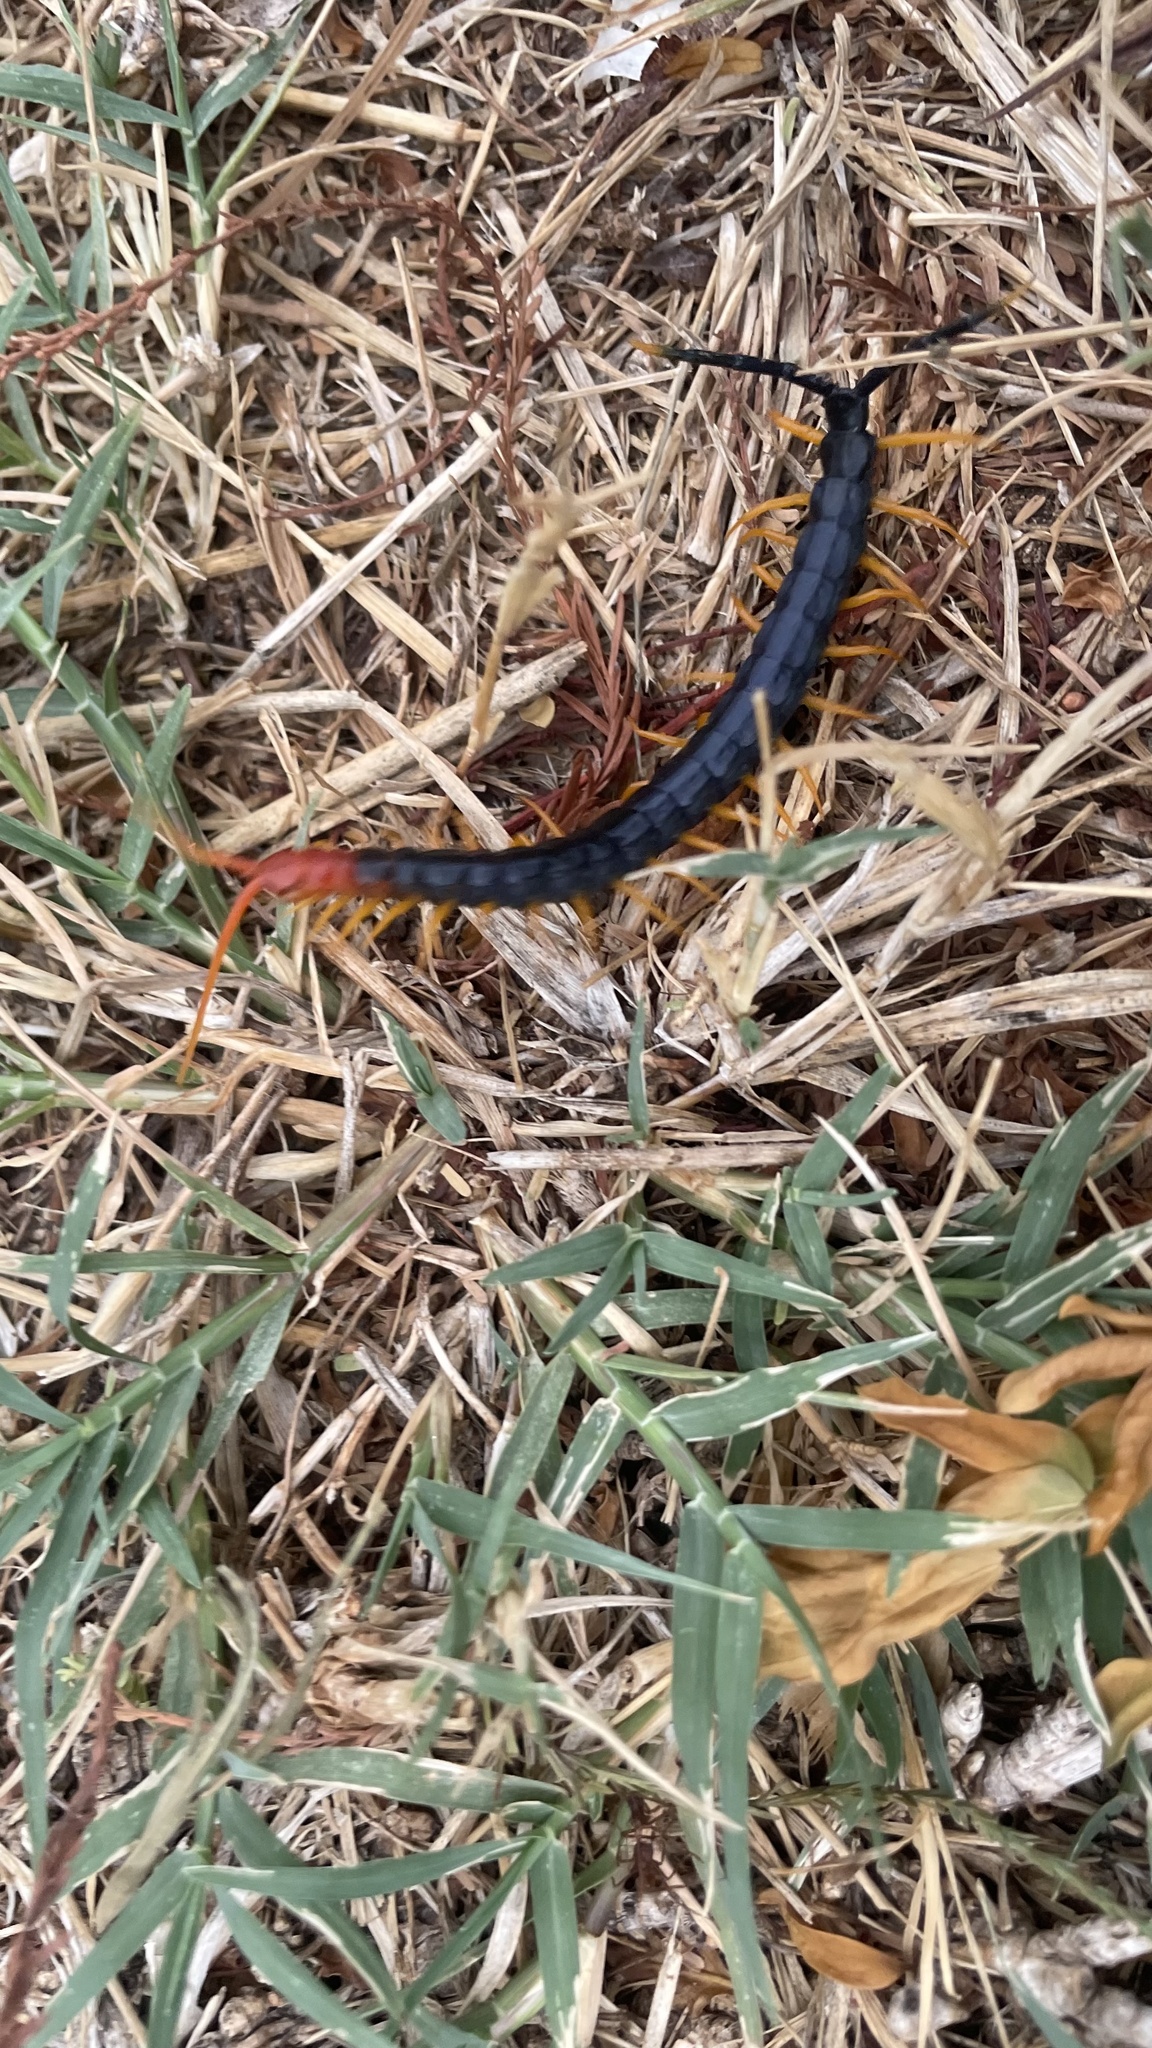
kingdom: Animalia
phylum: Arthropoda
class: Chilopoda
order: Scolopendromorpha
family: Scolopendridae
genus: Scolopendra
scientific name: Scolopendra heros
